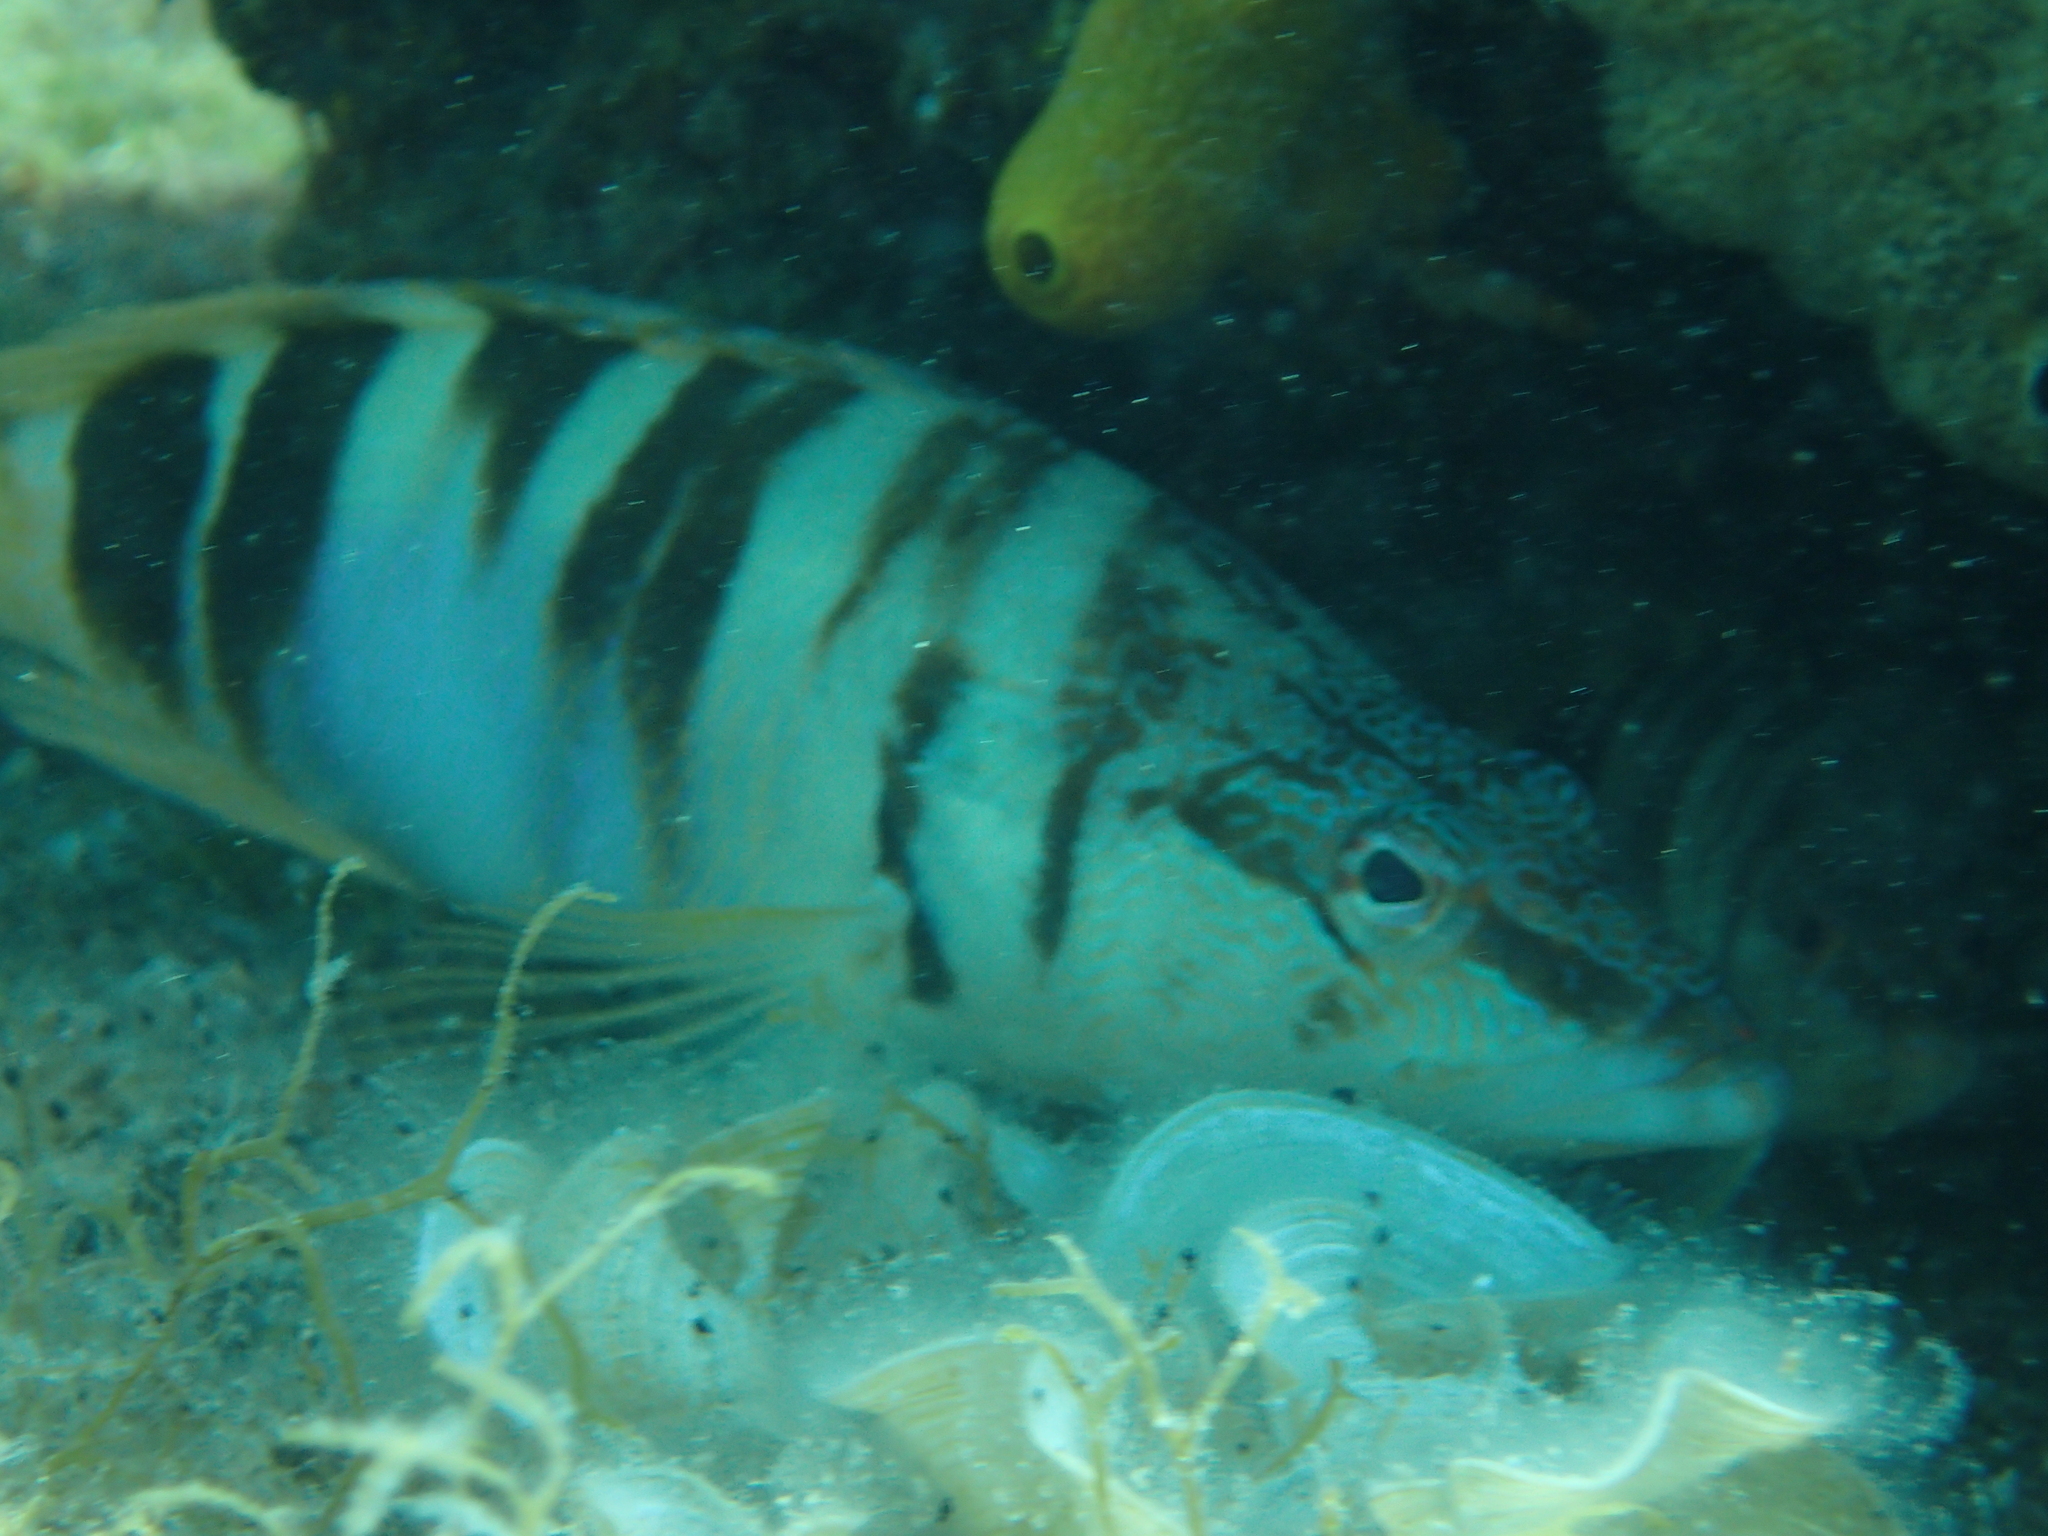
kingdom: Animalia
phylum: Chordata
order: Perciformes
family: Serranidae
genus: Serranus
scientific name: Serranus scriba
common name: Painted comber
